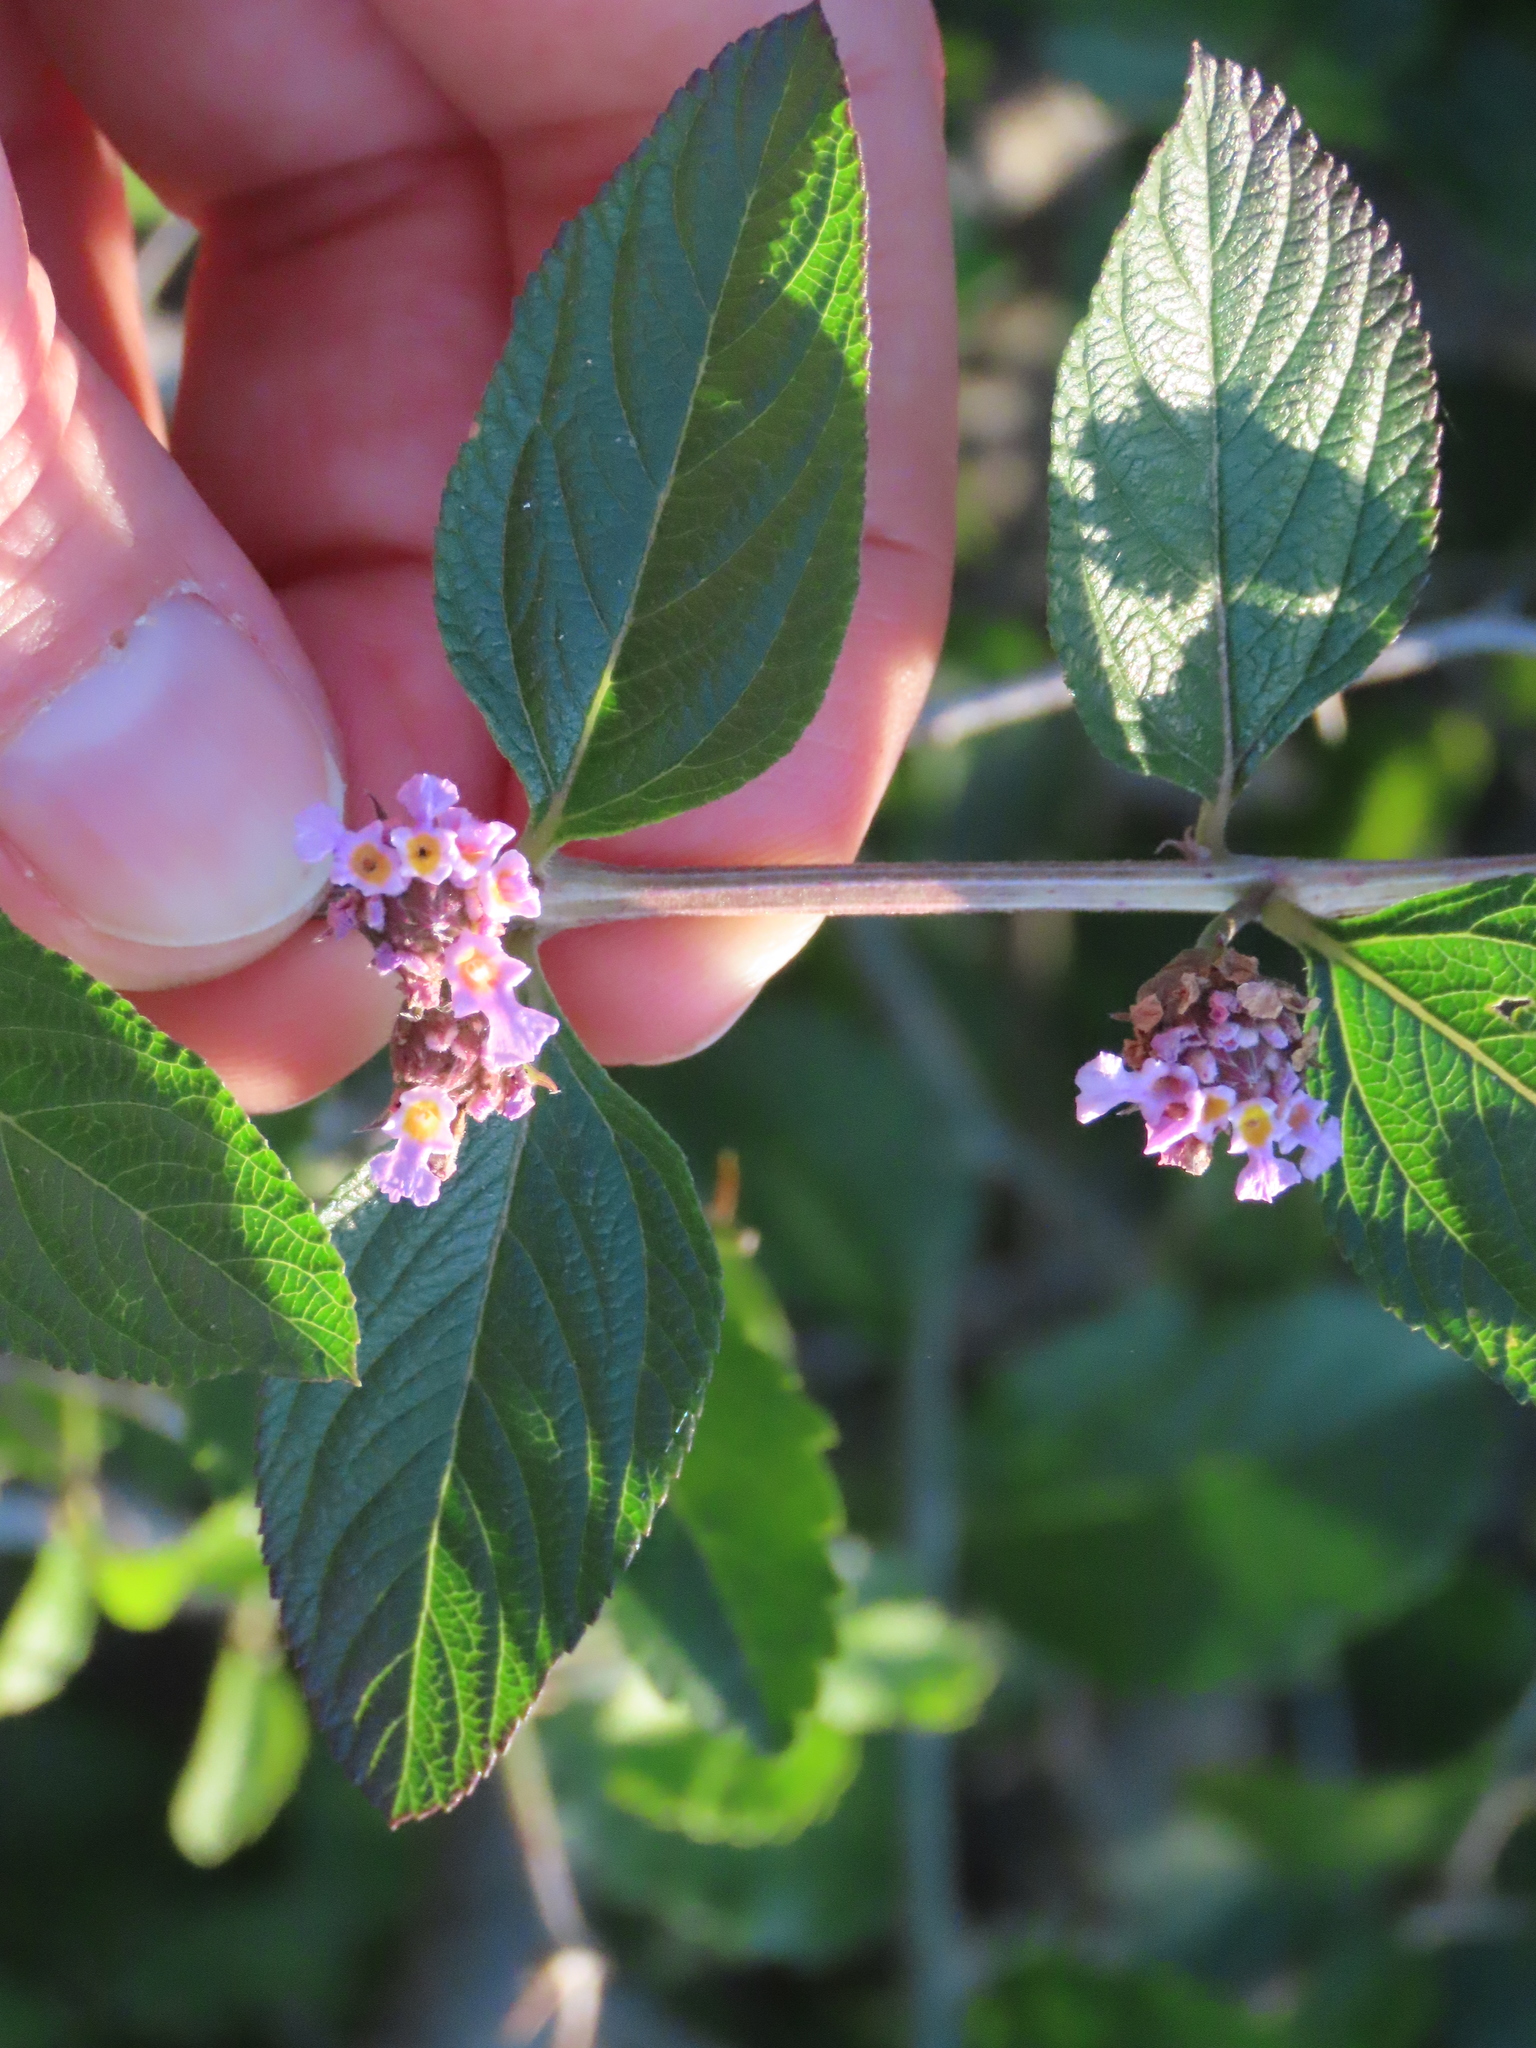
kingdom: Plantae
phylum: Tracheophyta
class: Magnoliopsida
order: Lamiales
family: Verbenaceae
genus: Lippia
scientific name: Lippia alba
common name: Bushy matgrass
